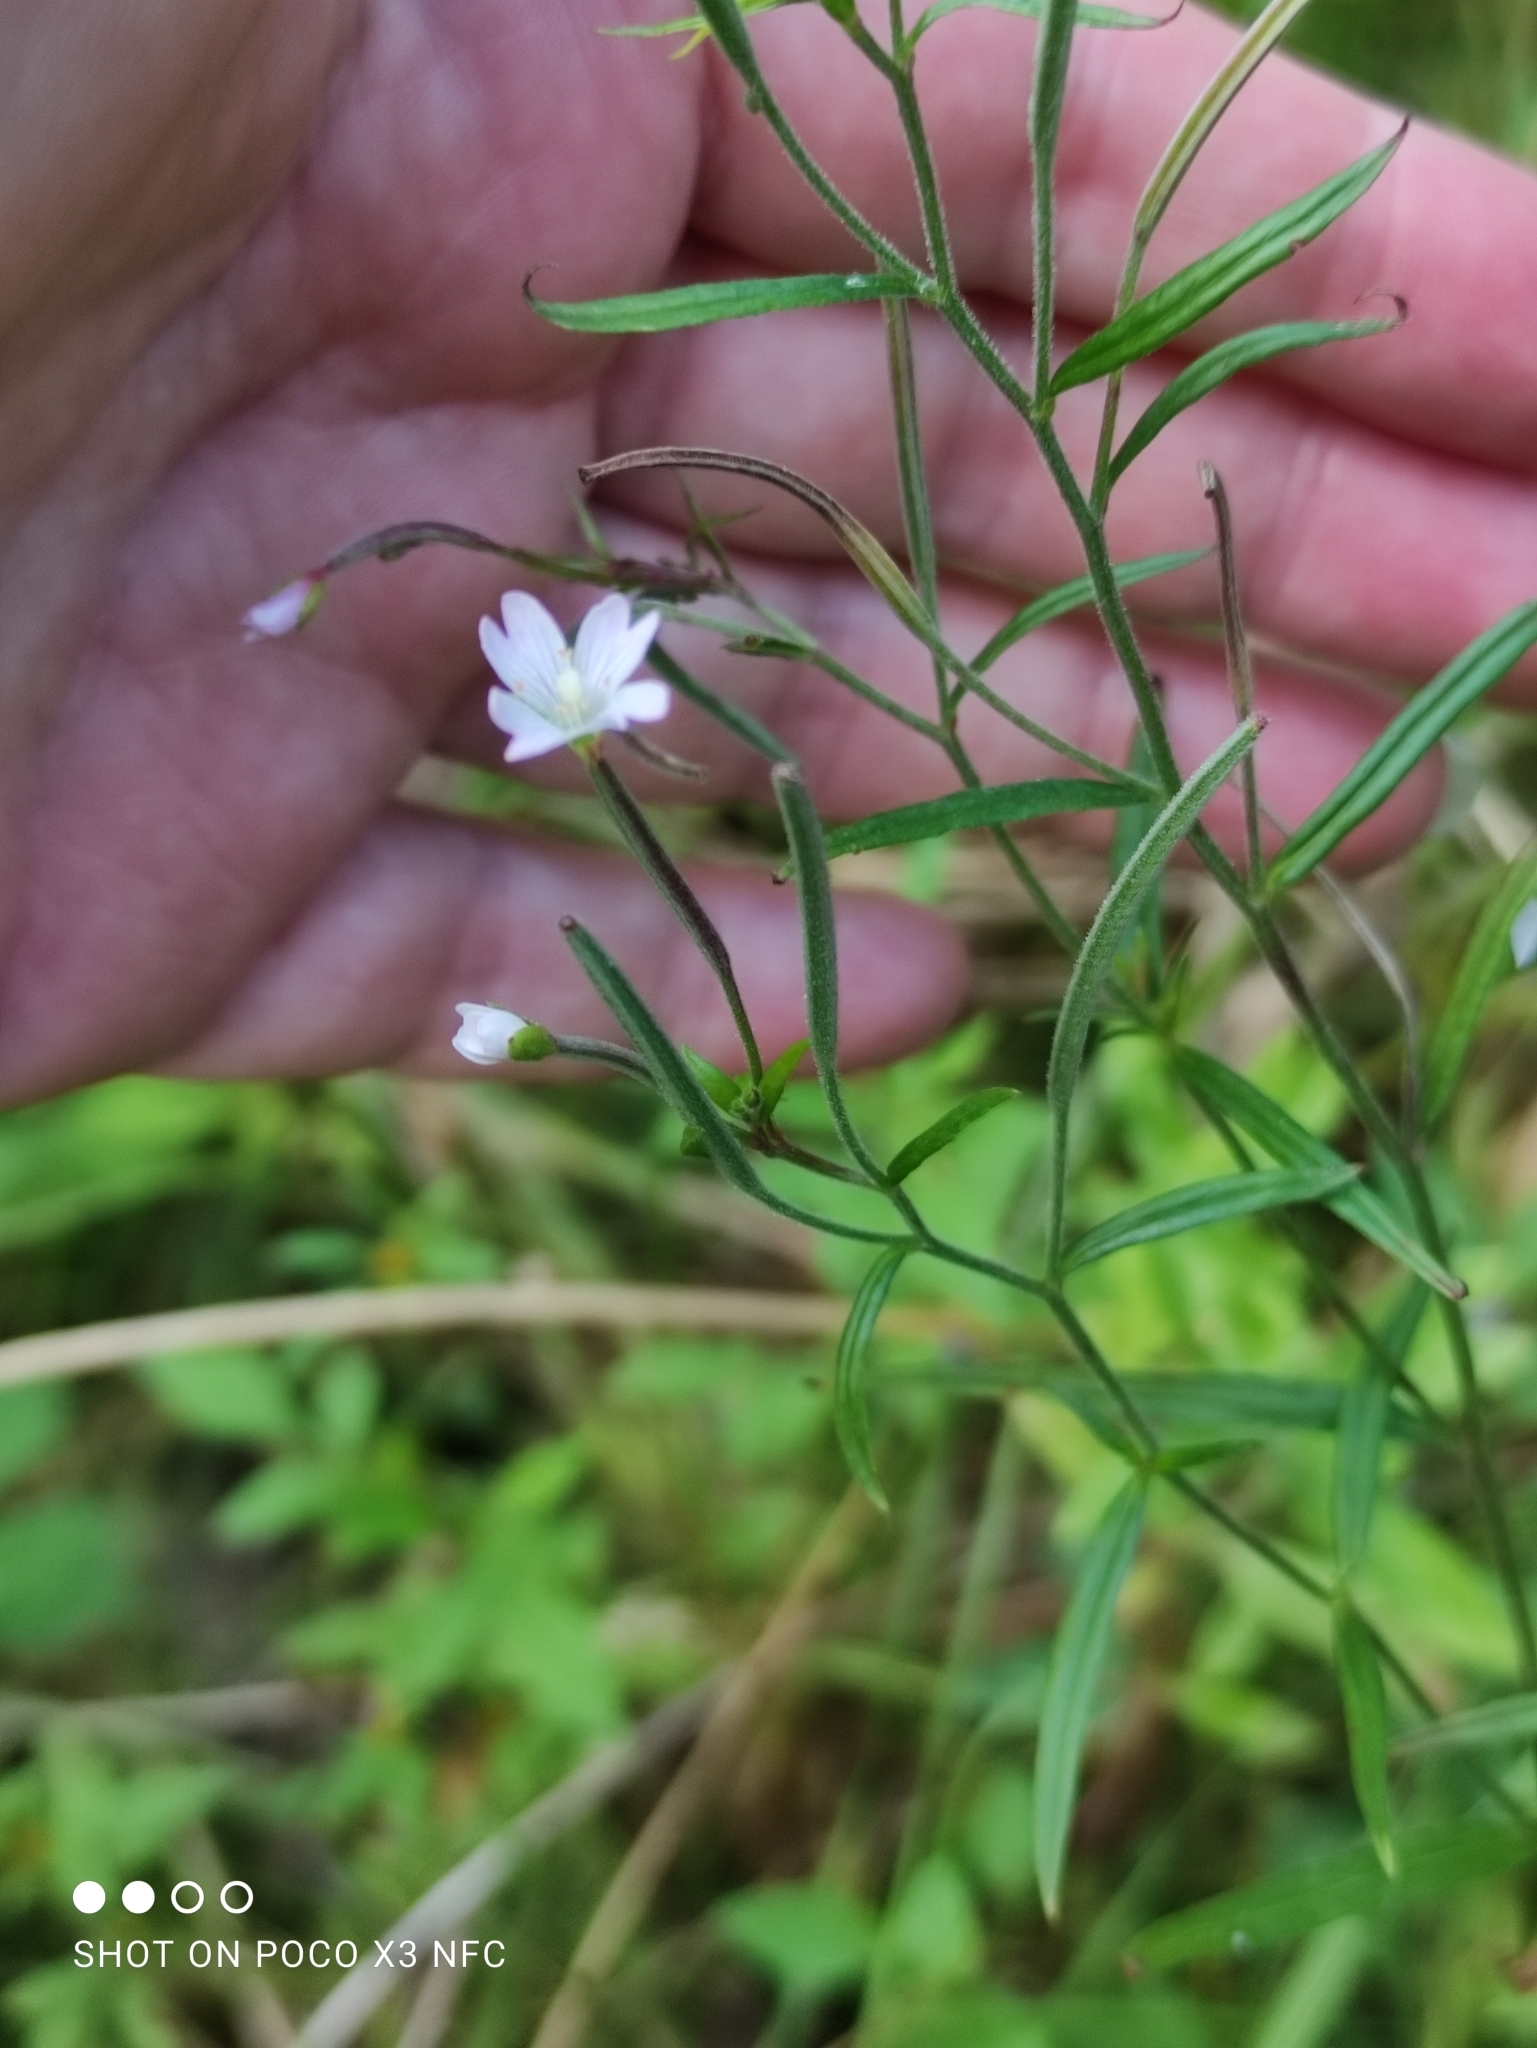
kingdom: Plantae
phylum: Tracheophyta
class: Magnoliopsida
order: Myrtales
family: Onagraceae
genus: Epilobium
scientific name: Epilobium palustre
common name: Marsh willowherb
